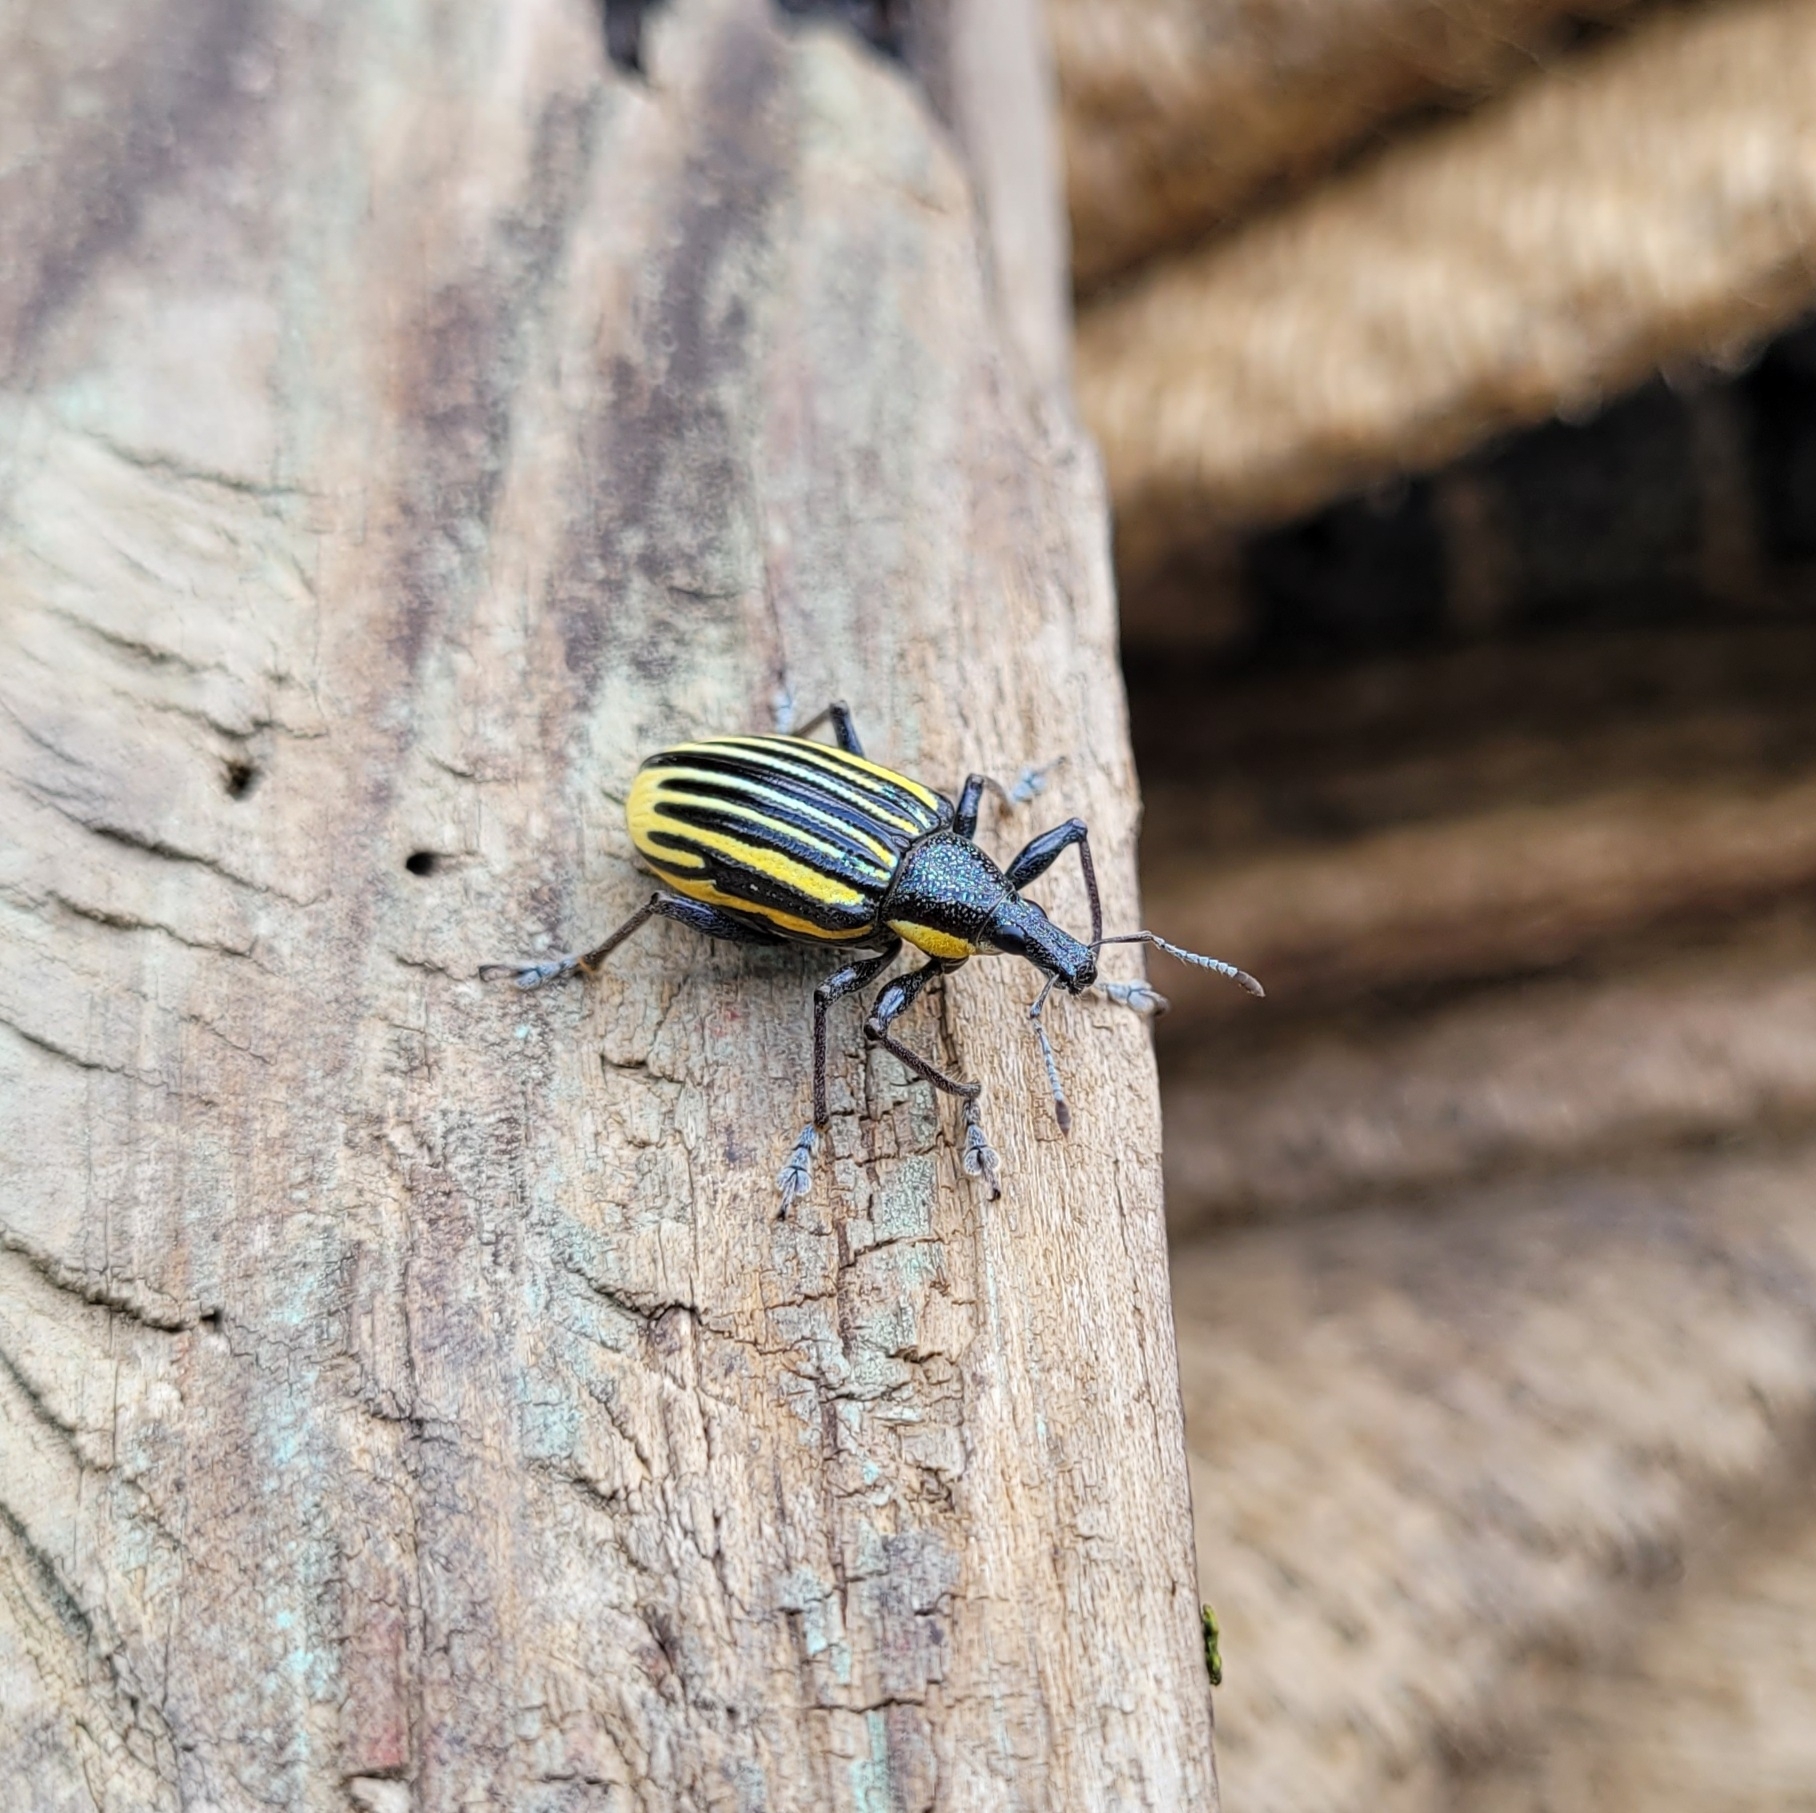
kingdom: Animalia
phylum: Arthropoda
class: Insecta
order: Coleoptera
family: Curculionidae
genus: Diaprepes
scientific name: Diaprepes abbreviatus
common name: Root weevil
